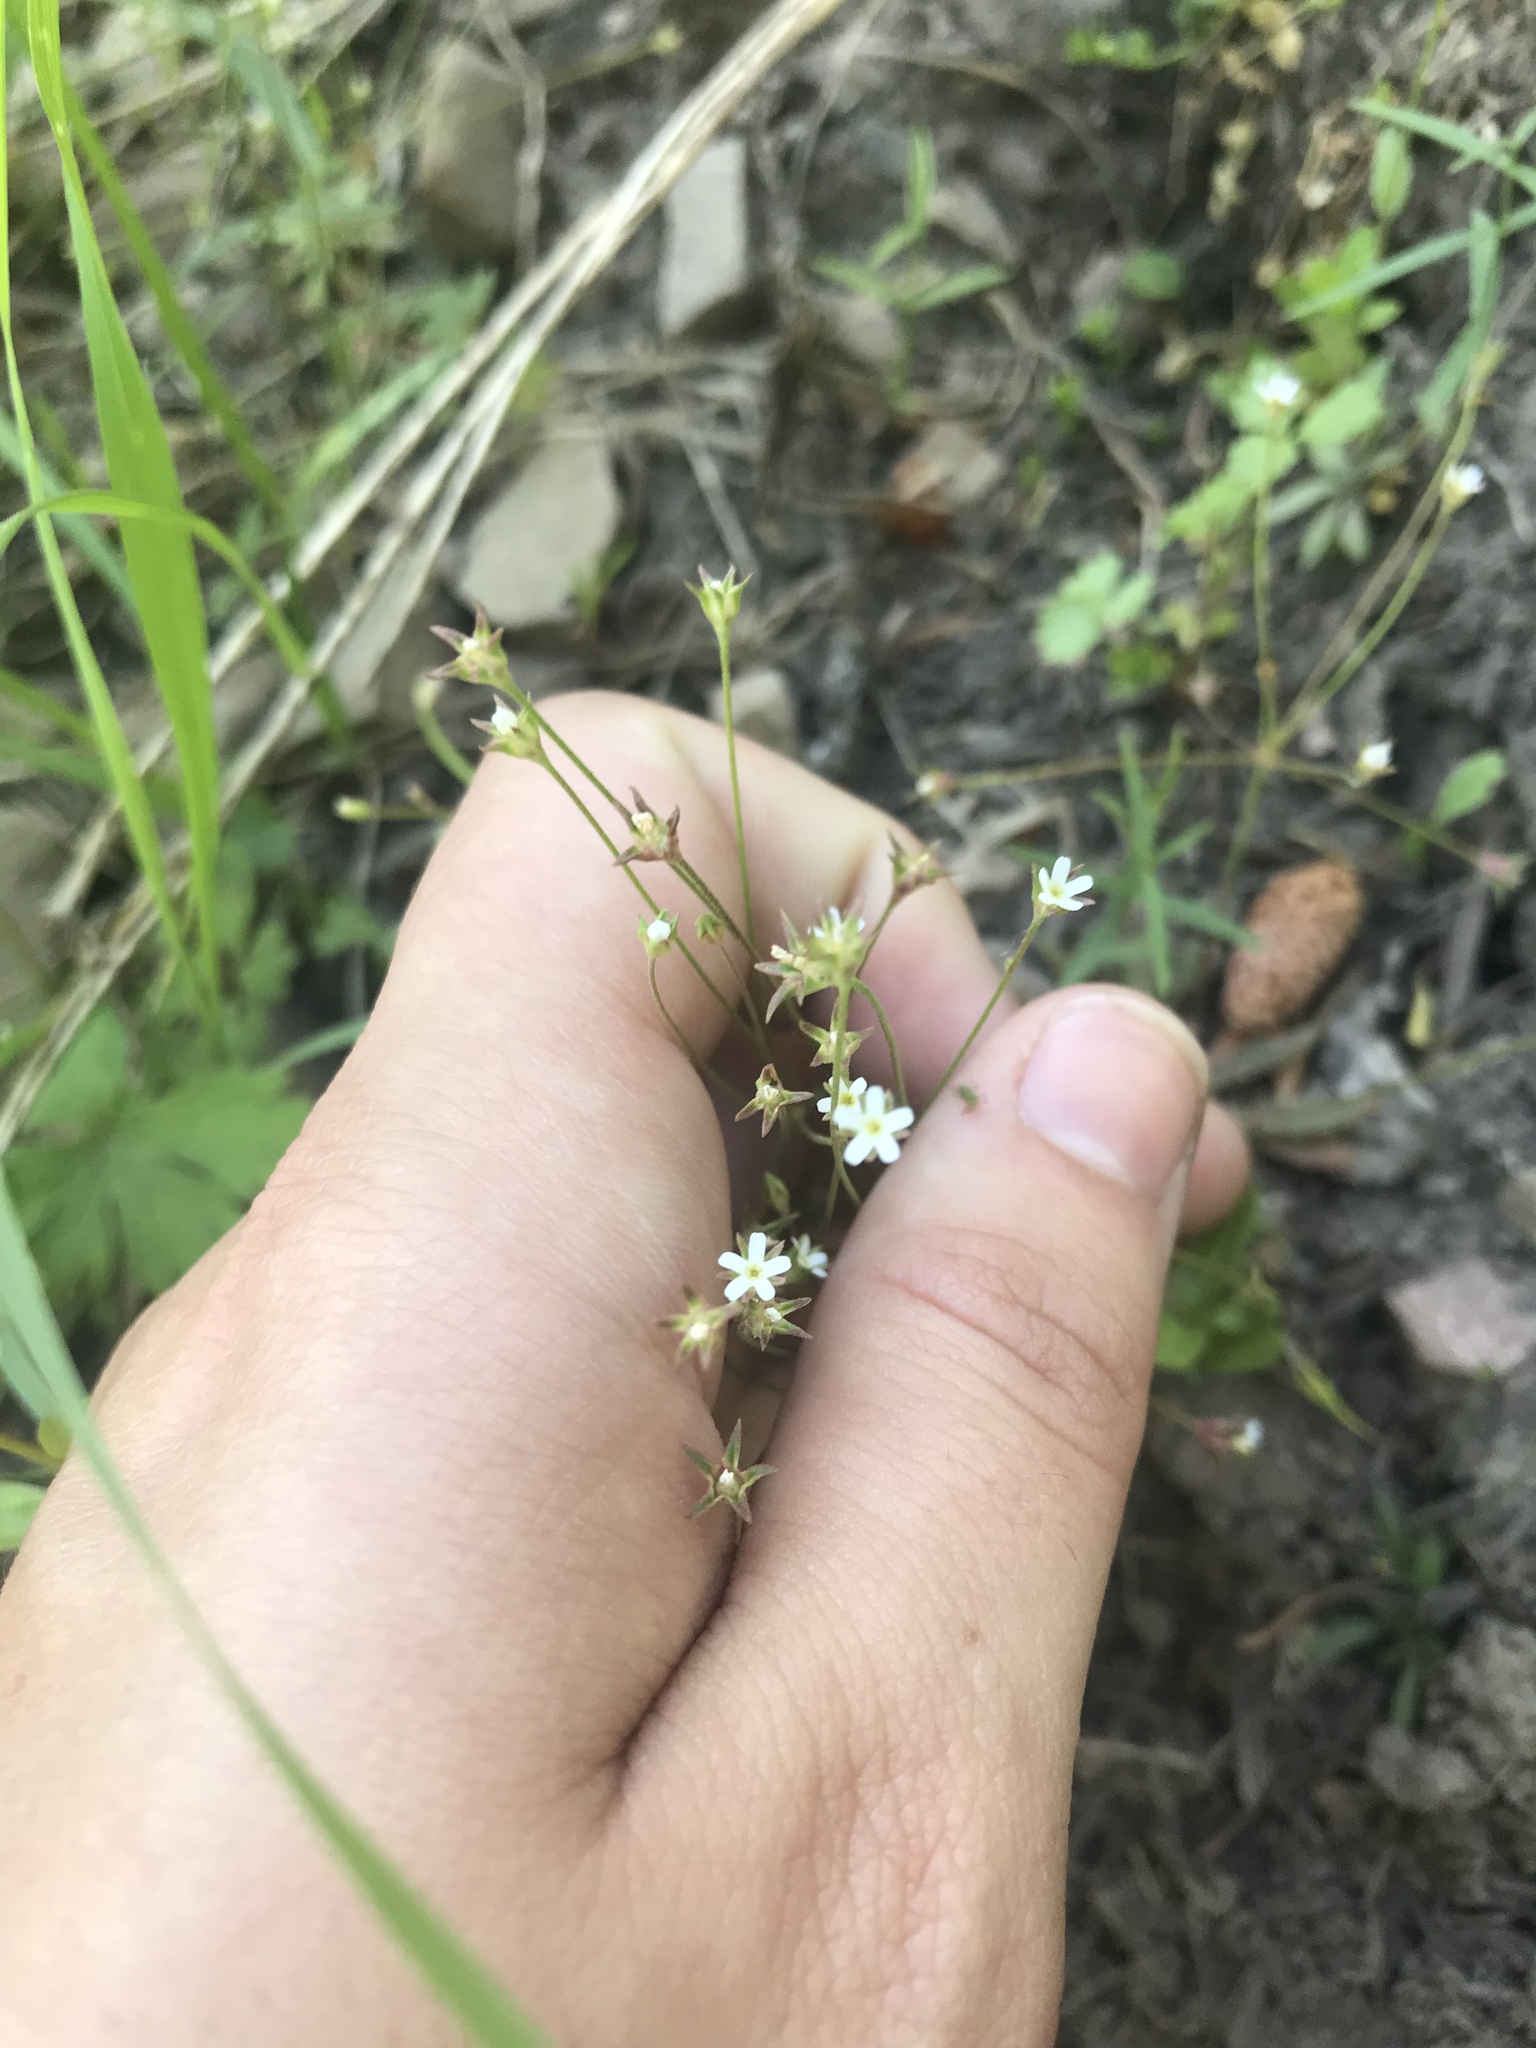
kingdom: Plantae
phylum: Tracheophyta
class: Magnoliopsida
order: Ericales
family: Primulaceae
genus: Androsace
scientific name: Androsace septentrionalis
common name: Hairy northern fairy-candelabra
